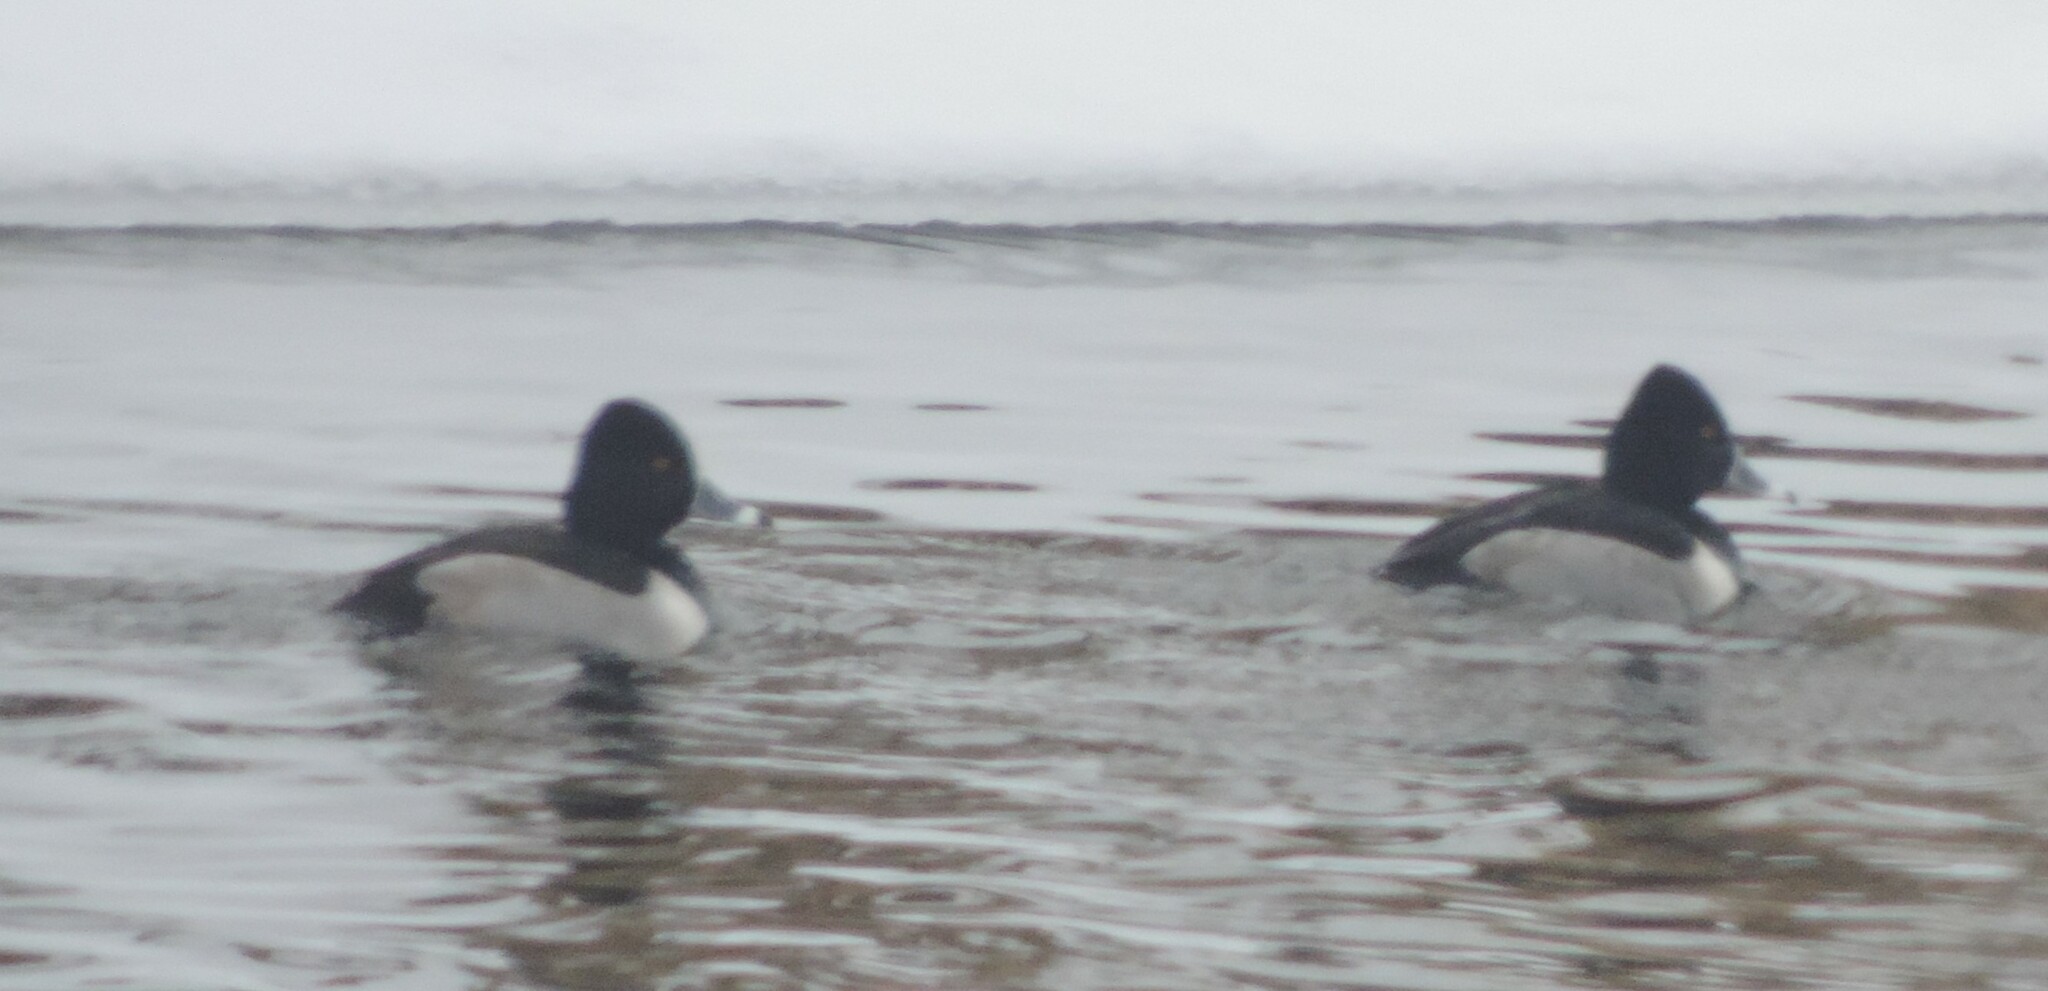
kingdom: Animalia
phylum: Chordata
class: Aves
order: Anseriformes
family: Anatidae
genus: Aythya
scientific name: Aythya collaris
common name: Ring-necked duck
